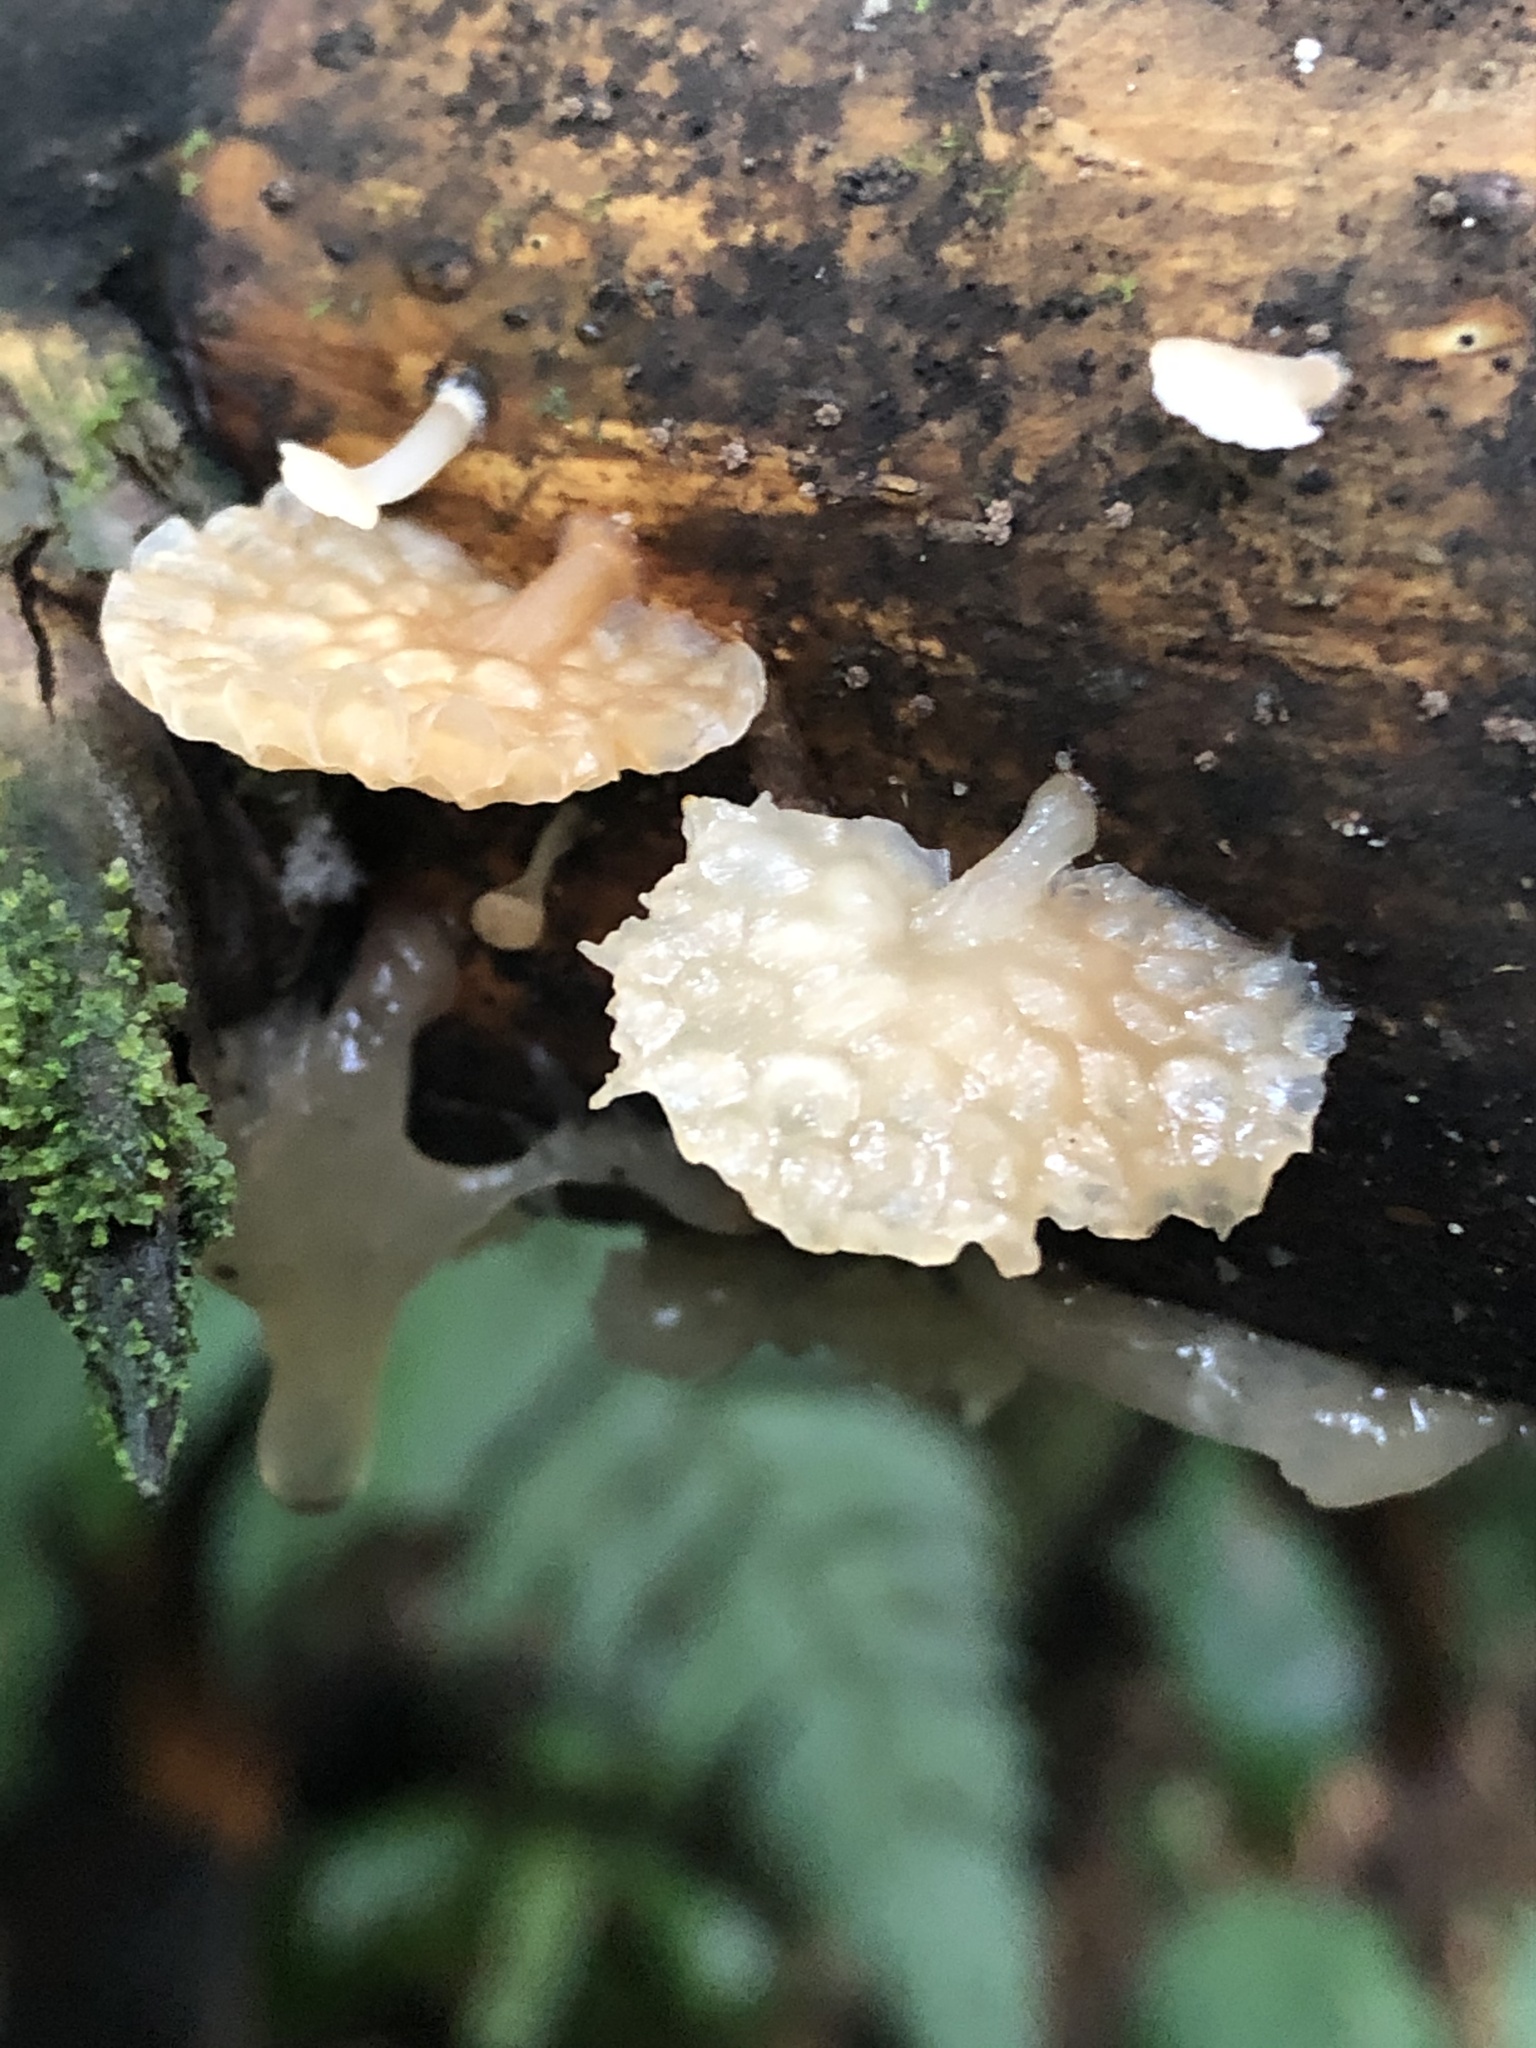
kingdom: Fungi
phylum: Basidiomycota
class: Agaricomycetes
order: Auriculariales
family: Auriculariaceae
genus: Auricularia
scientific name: Auricularia delicata
